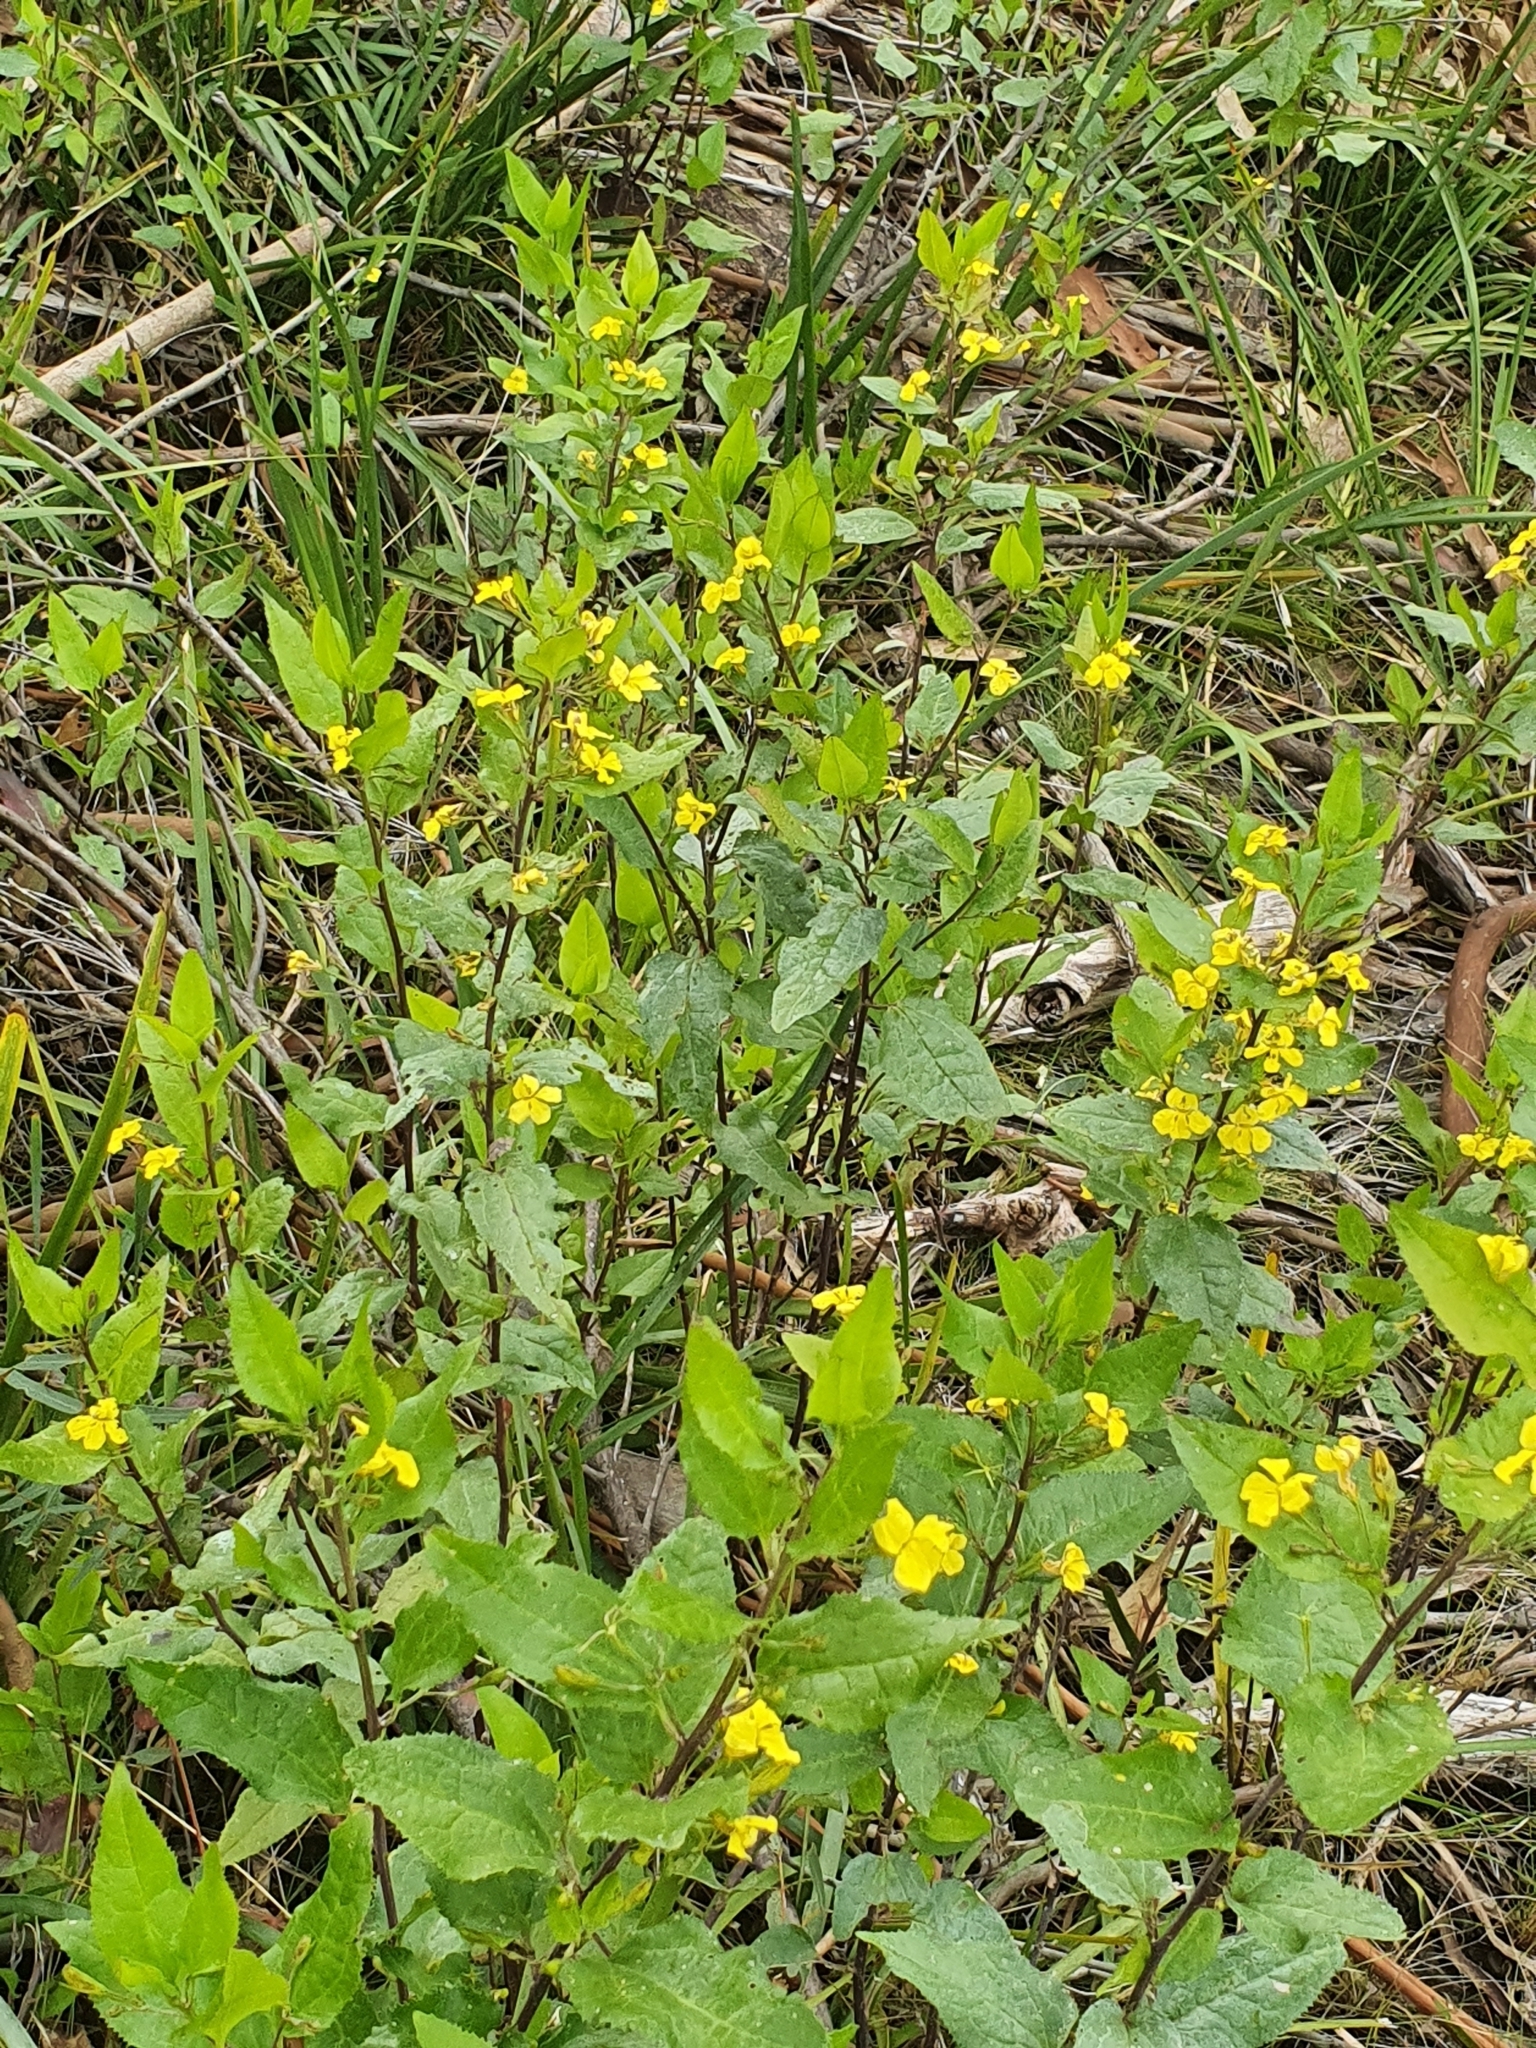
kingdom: Plantae
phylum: Tracheophyta
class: Magnoliopsida
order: Asterales
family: Goodeniaceae
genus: Goodenia
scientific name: Goodenia ovata
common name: Hop goodenia
